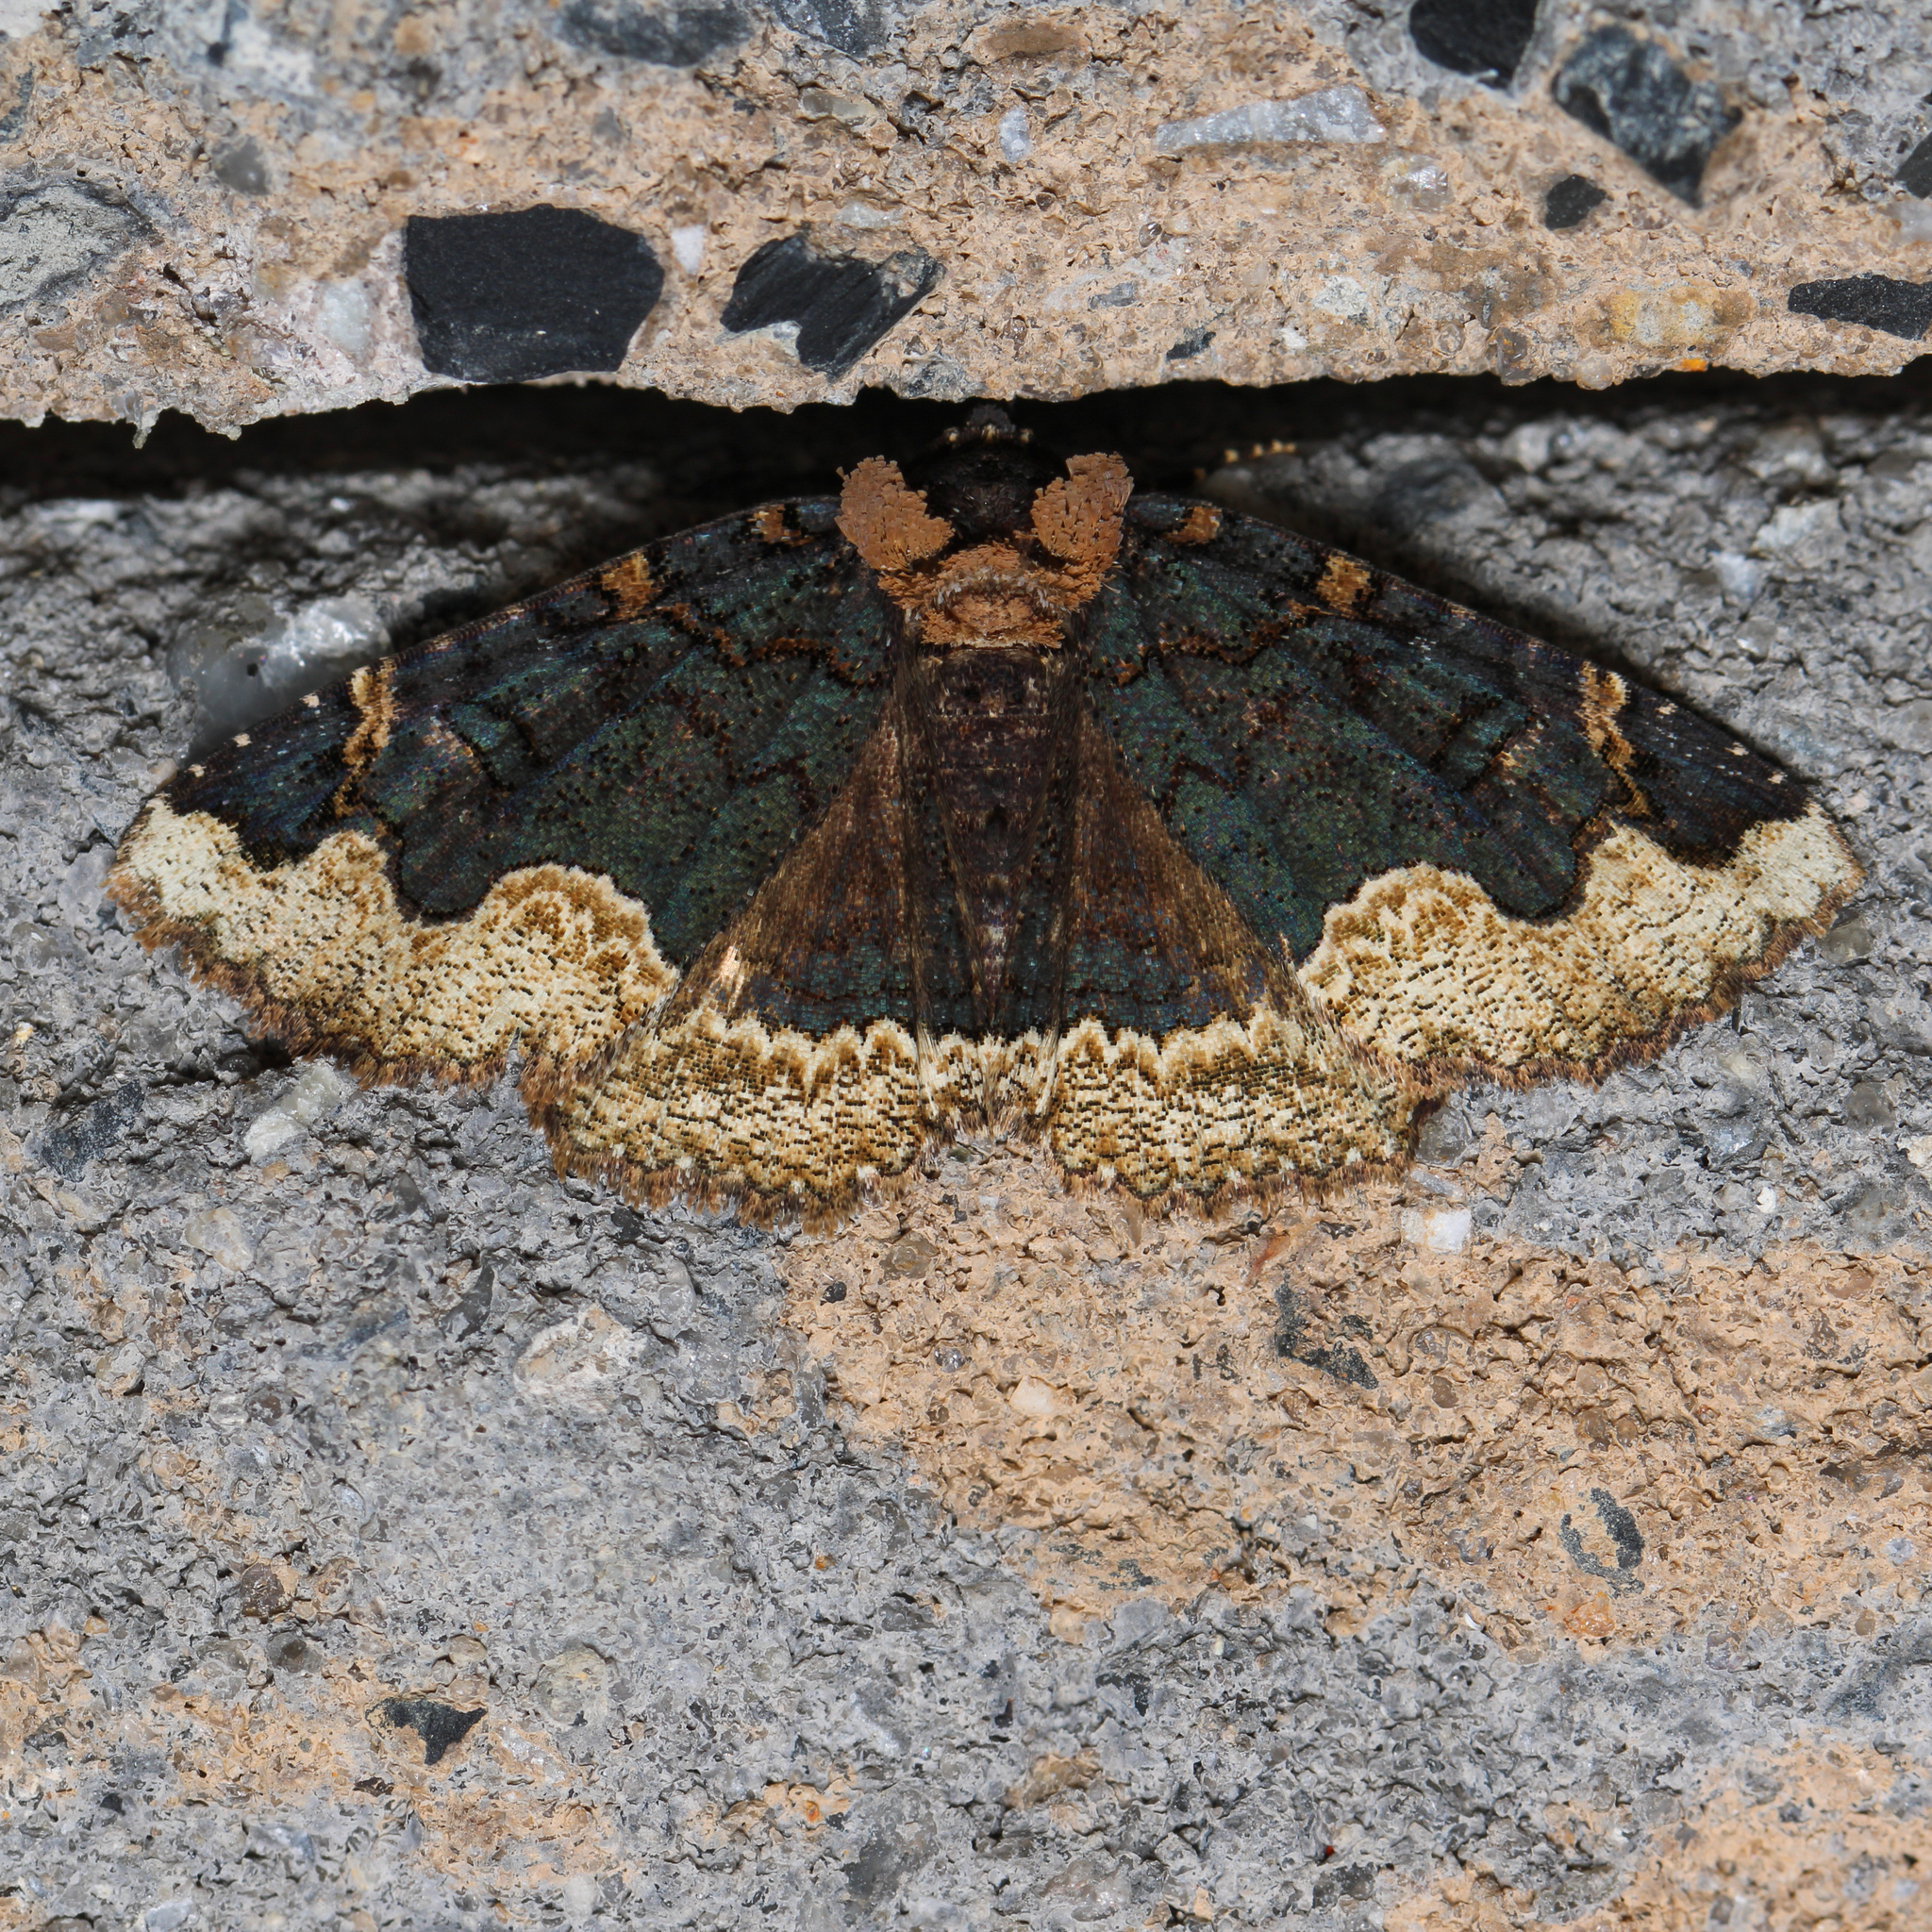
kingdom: Animalia
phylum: Arthropoda
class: Insecta
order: Lepidoptera
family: Erebidae
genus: Zale
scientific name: Zale horrida
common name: Horrid zale moth
